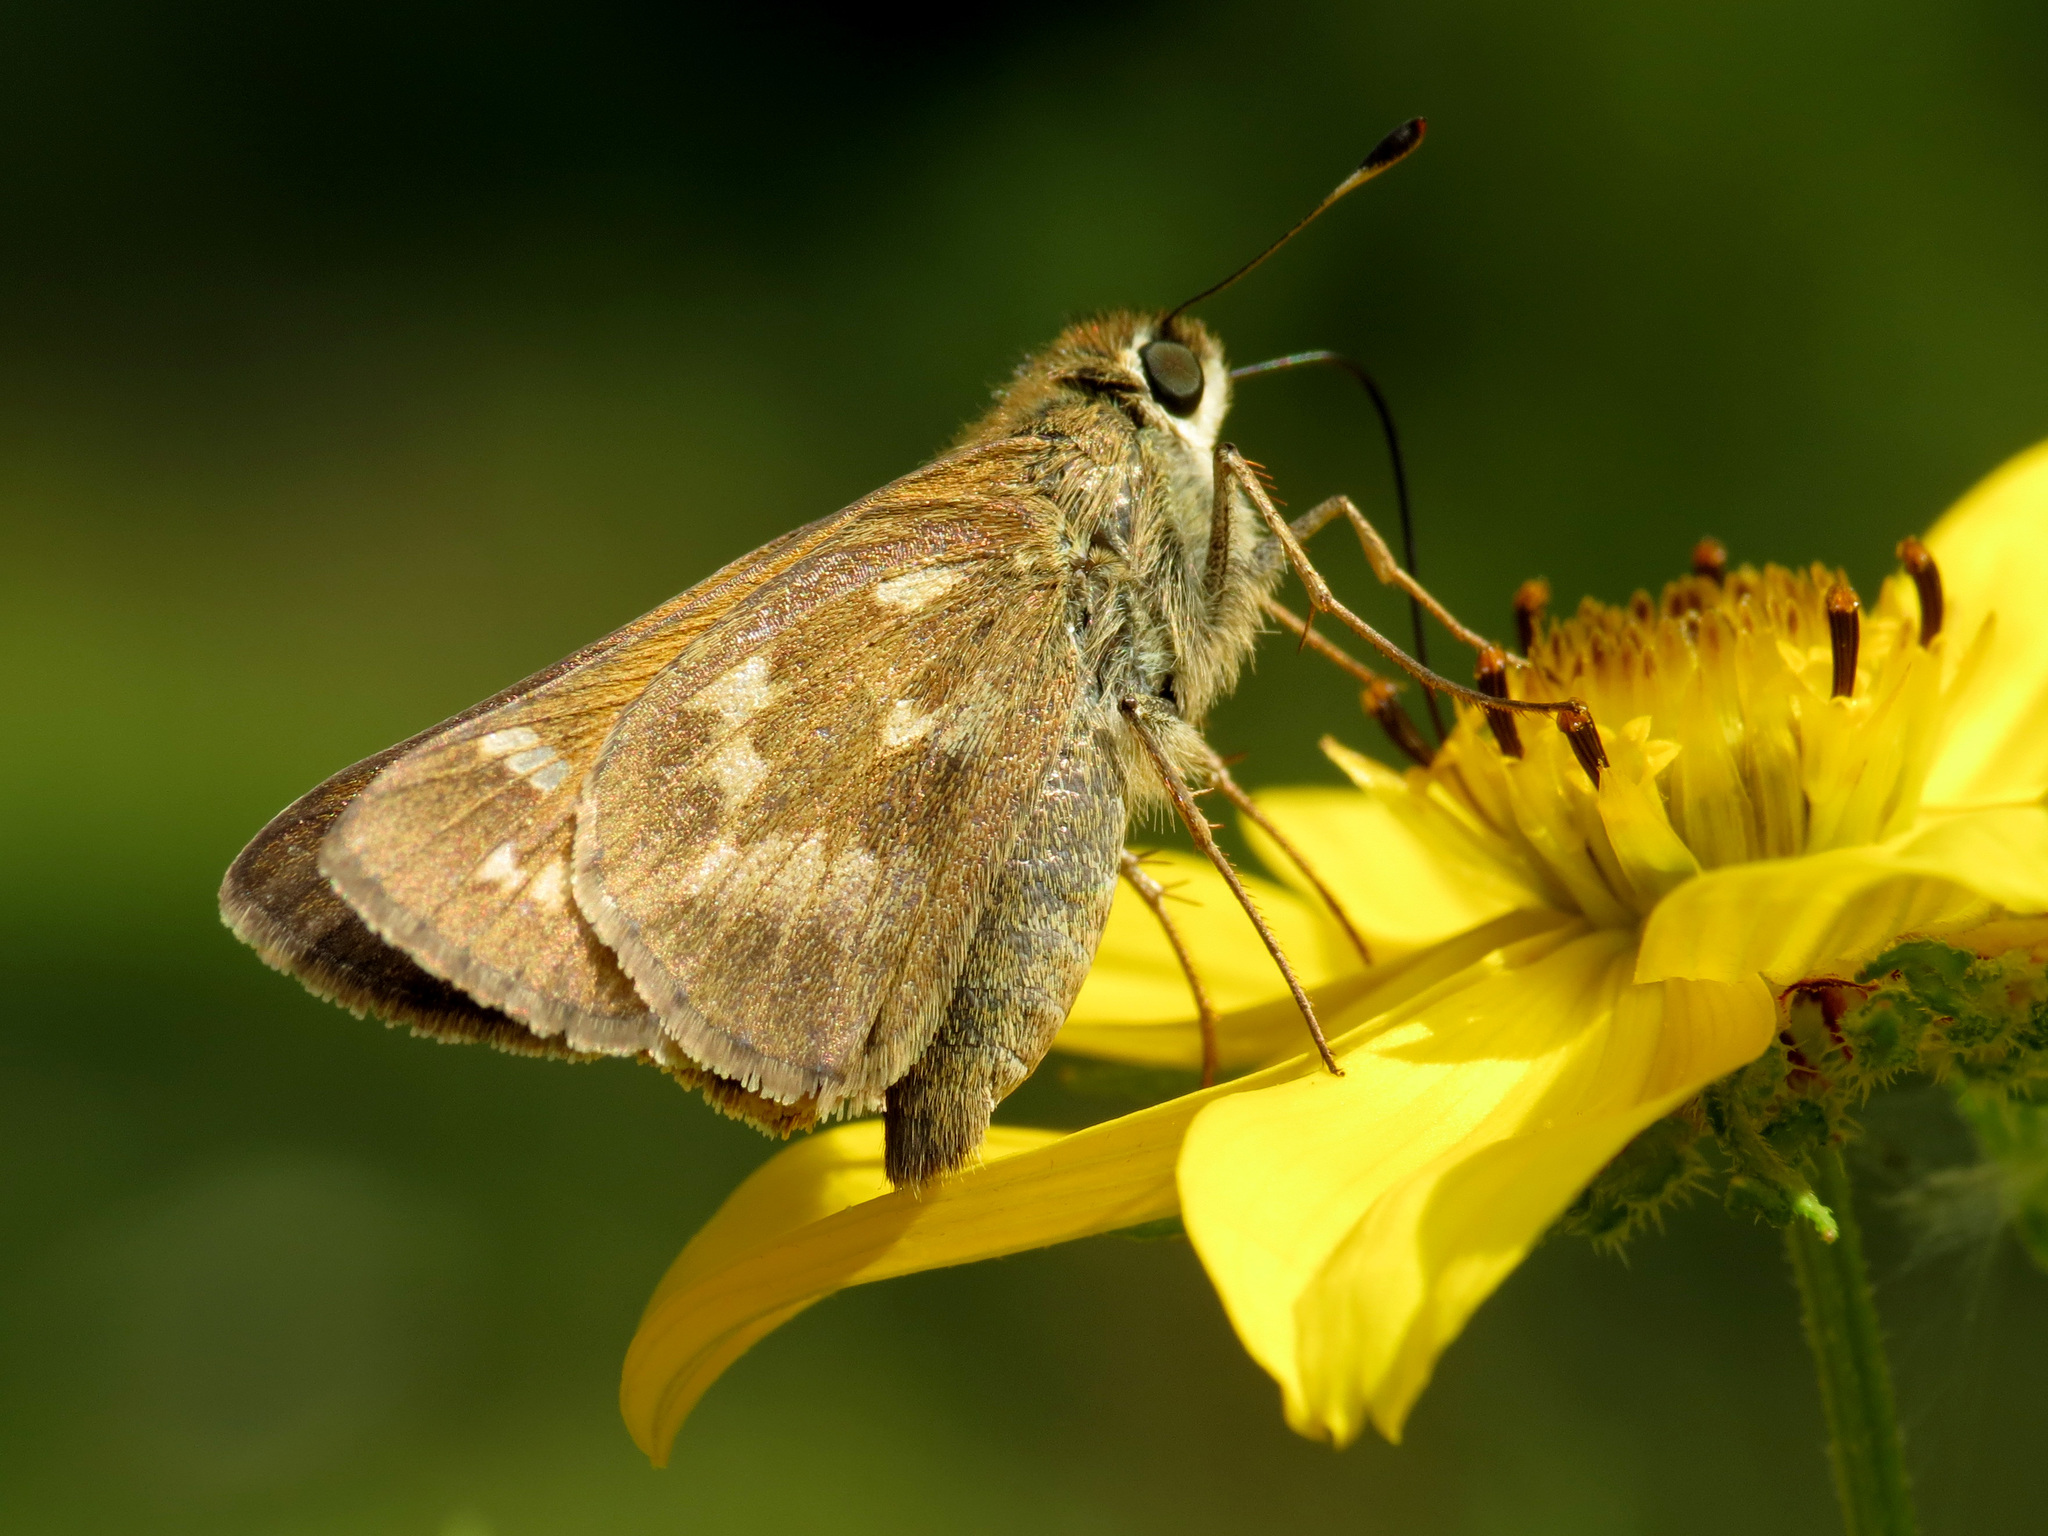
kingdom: Animalia
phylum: Arthropoda
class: Insecta
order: Lepidoptera
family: Hesperiidae
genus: Atalopedes
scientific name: Atalopedes
